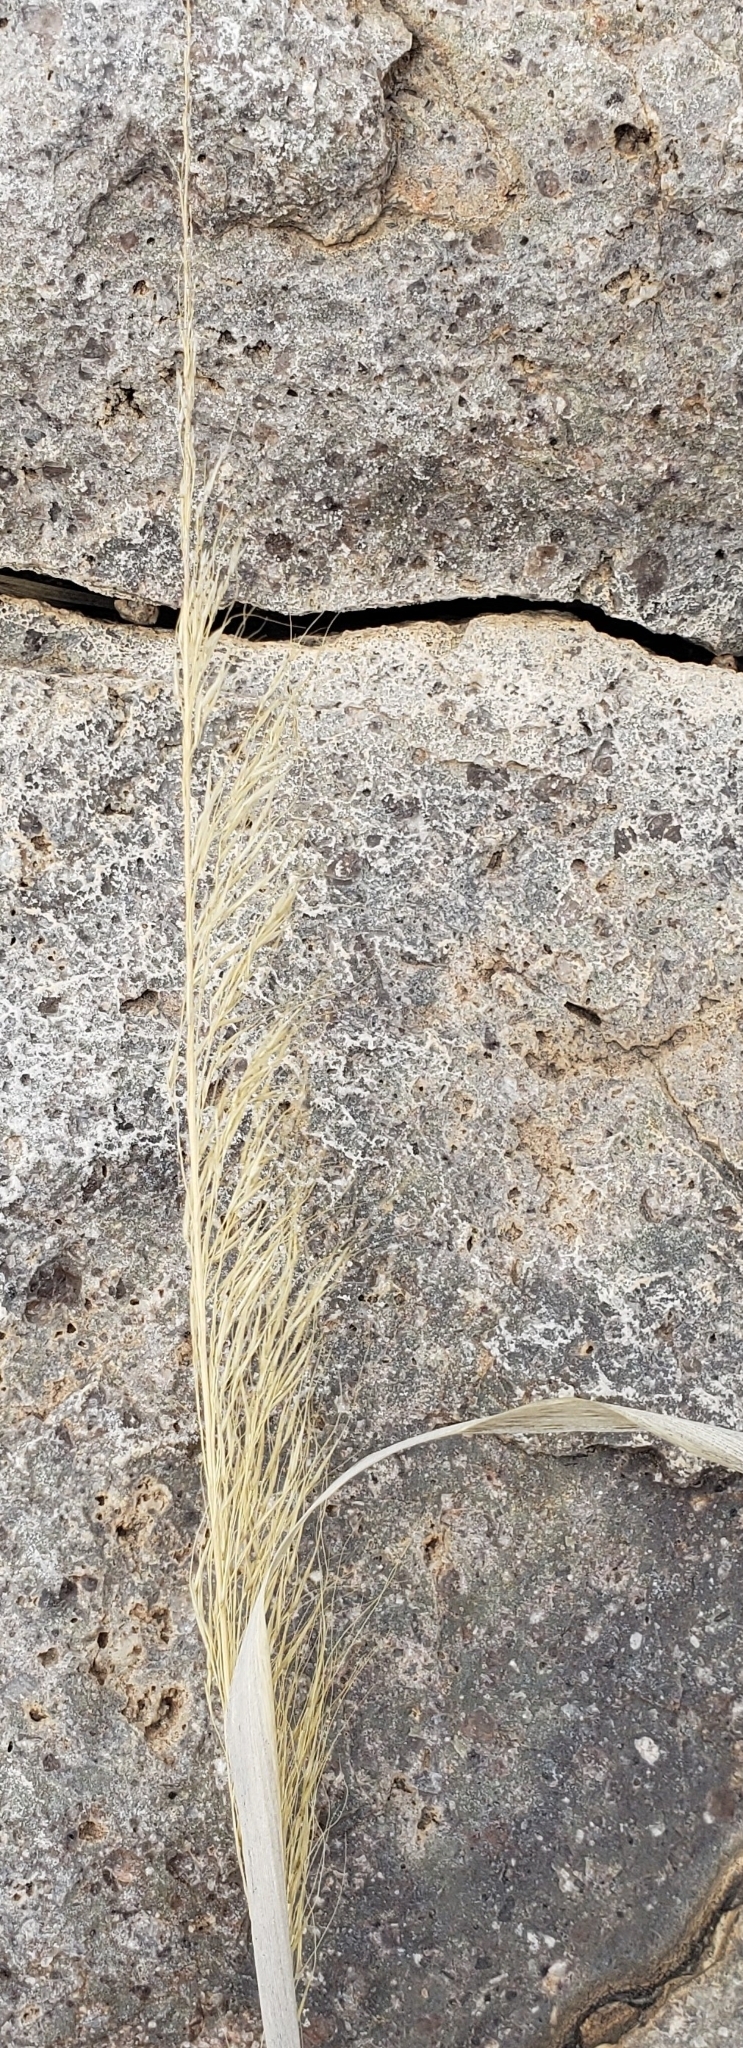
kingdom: Plantae
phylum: Tracheophyta
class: Liliopsida
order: Poales
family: Poaceae
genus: Pseudoeriocoma
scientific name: Pseudoeriocoma eminens
